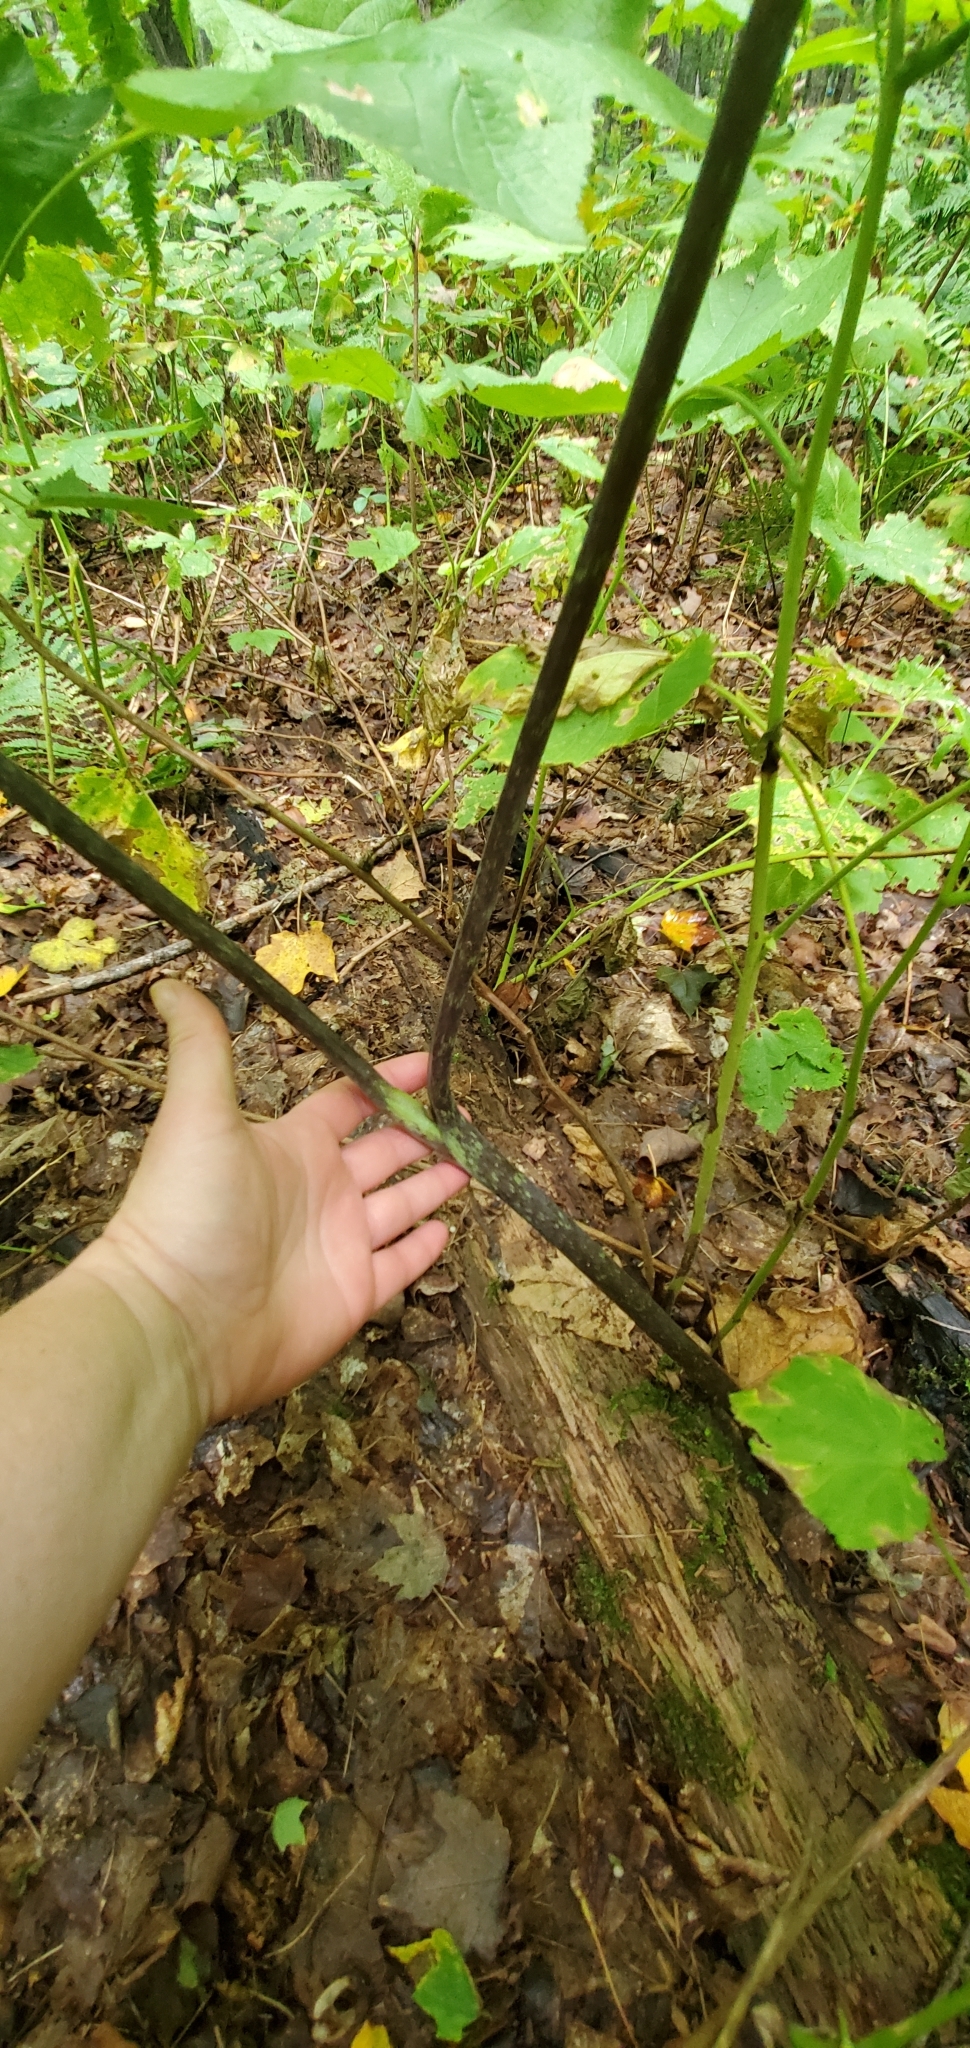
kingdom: Plantae
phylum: Tracheophyta
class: Liliopsida
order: Alismatales
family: Araceae
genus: Arisaema
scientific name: Arisaema triphyllum
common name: Jack-in-the-pulpit
